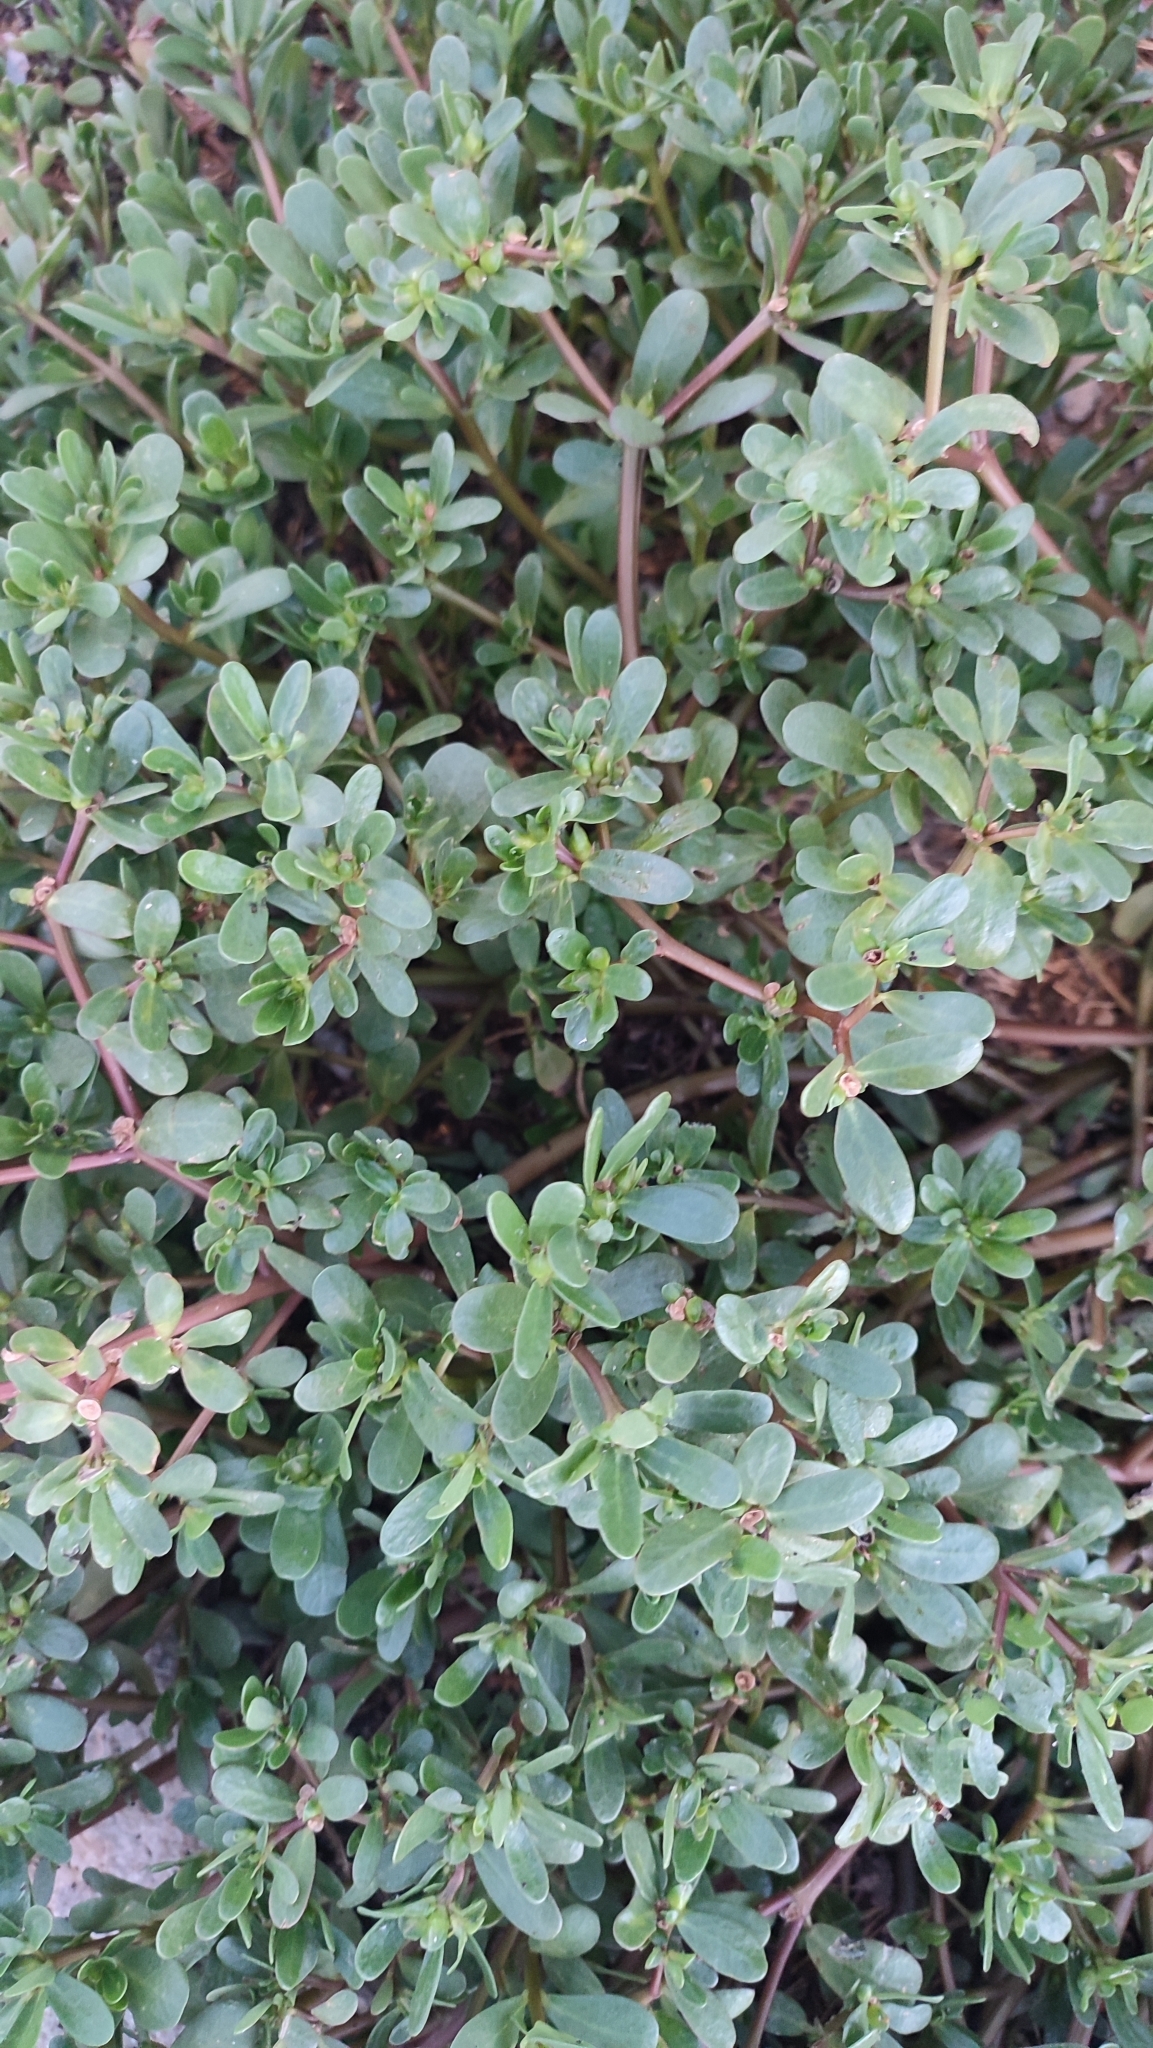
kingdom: Plantae
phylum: Tracheophyta
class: Magnoliopsida
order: Caryophyllales
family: Portulacaceae
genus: Portulaca
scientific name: Portulaca oleracea
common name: Common purslane
